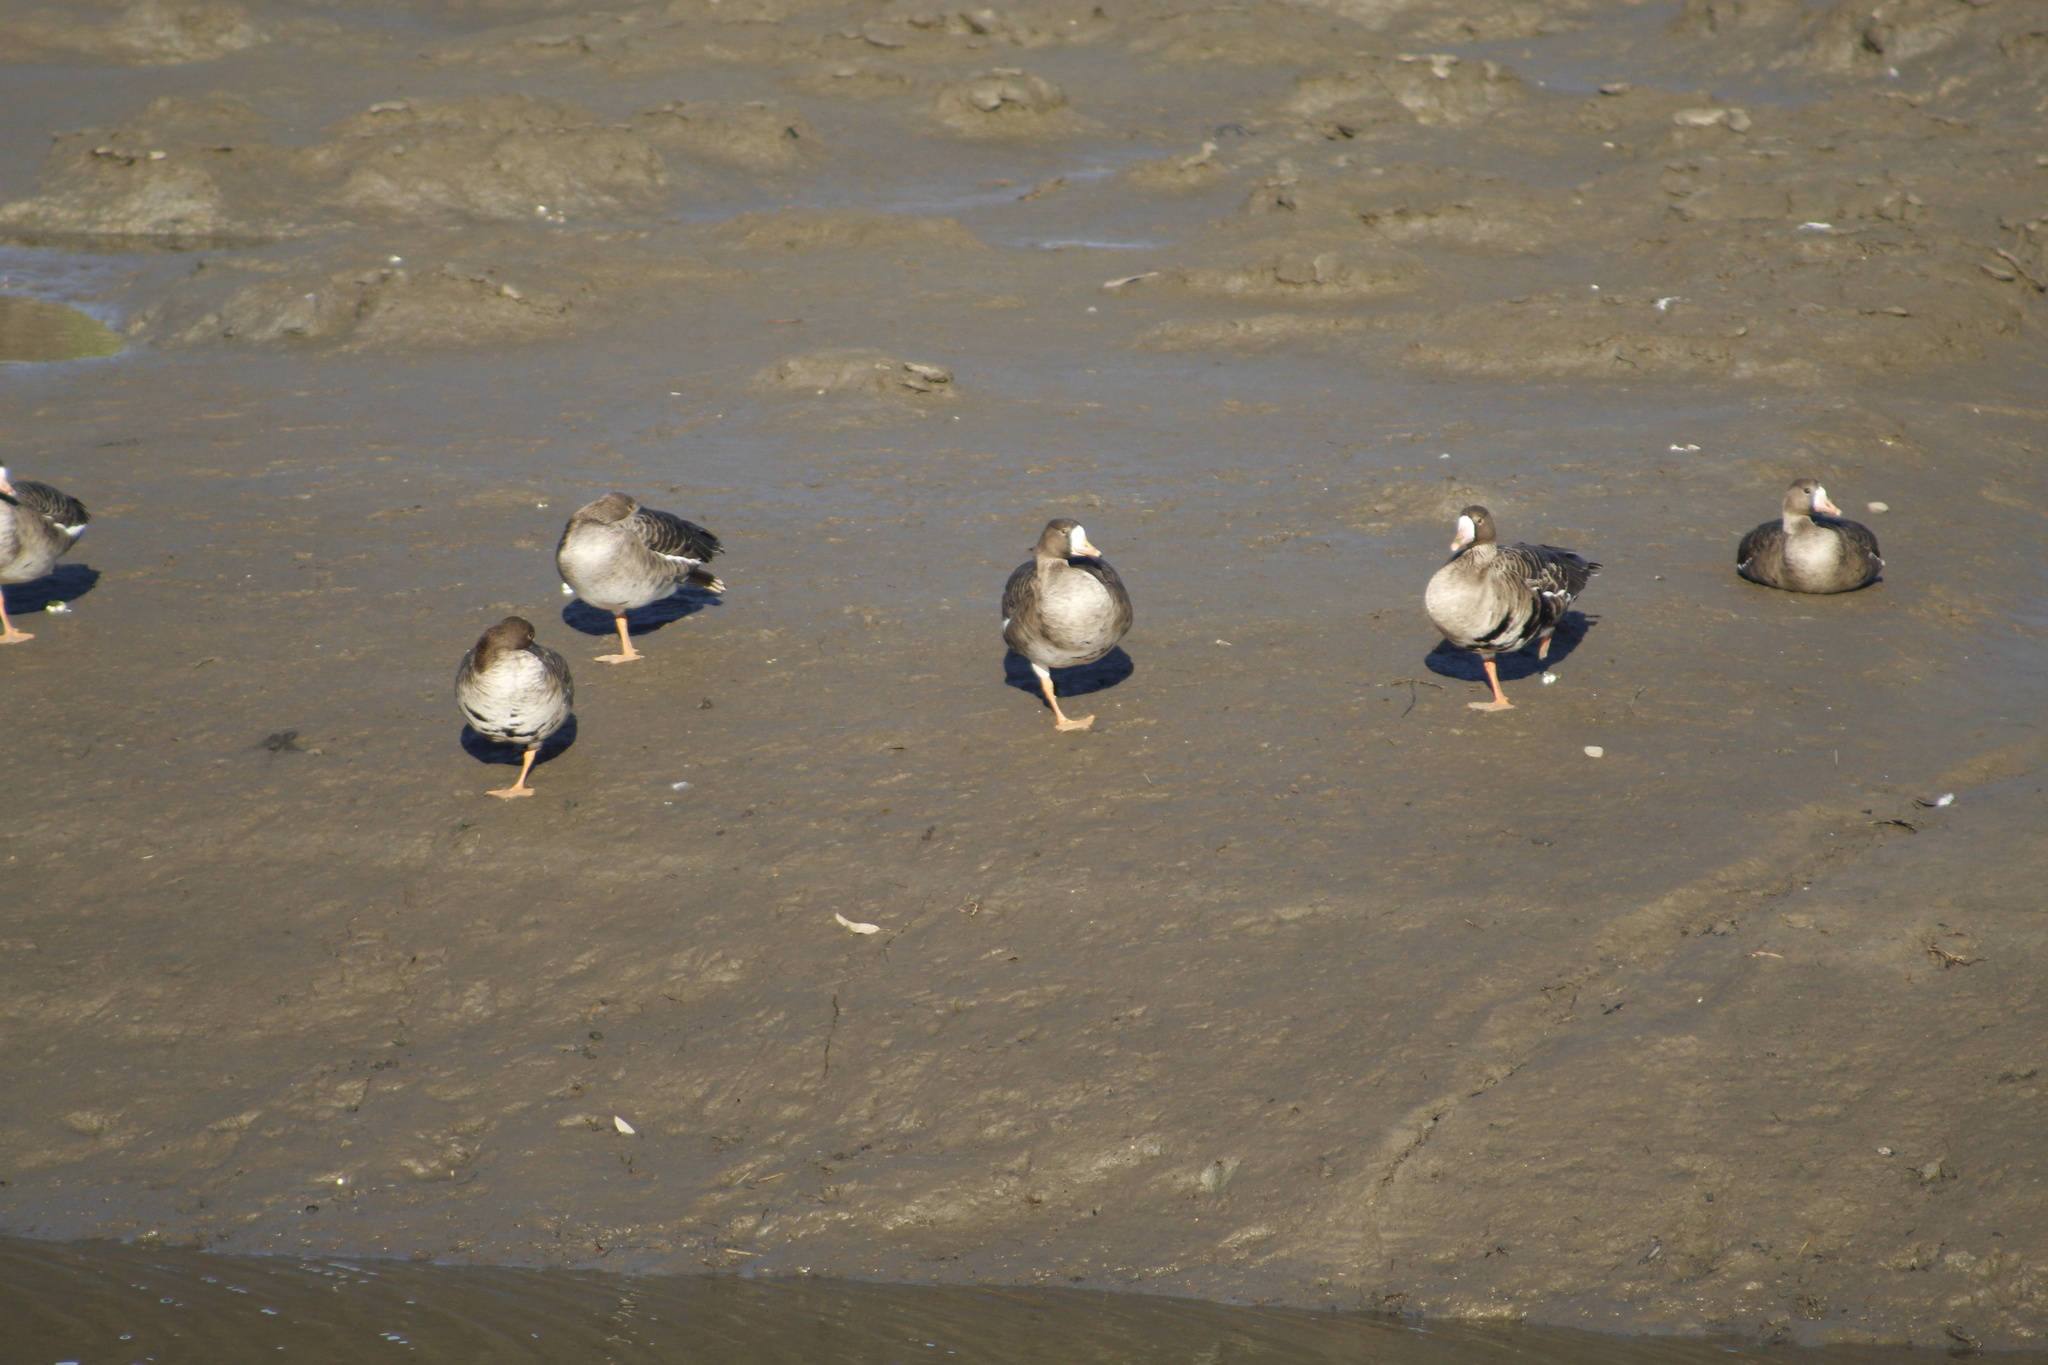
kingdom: Animalia
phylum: Chordata
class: Aves
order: Anseriformes
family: Anatidae
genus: Anser
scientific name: Anser albifrons
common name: Greater white-fronted goose
